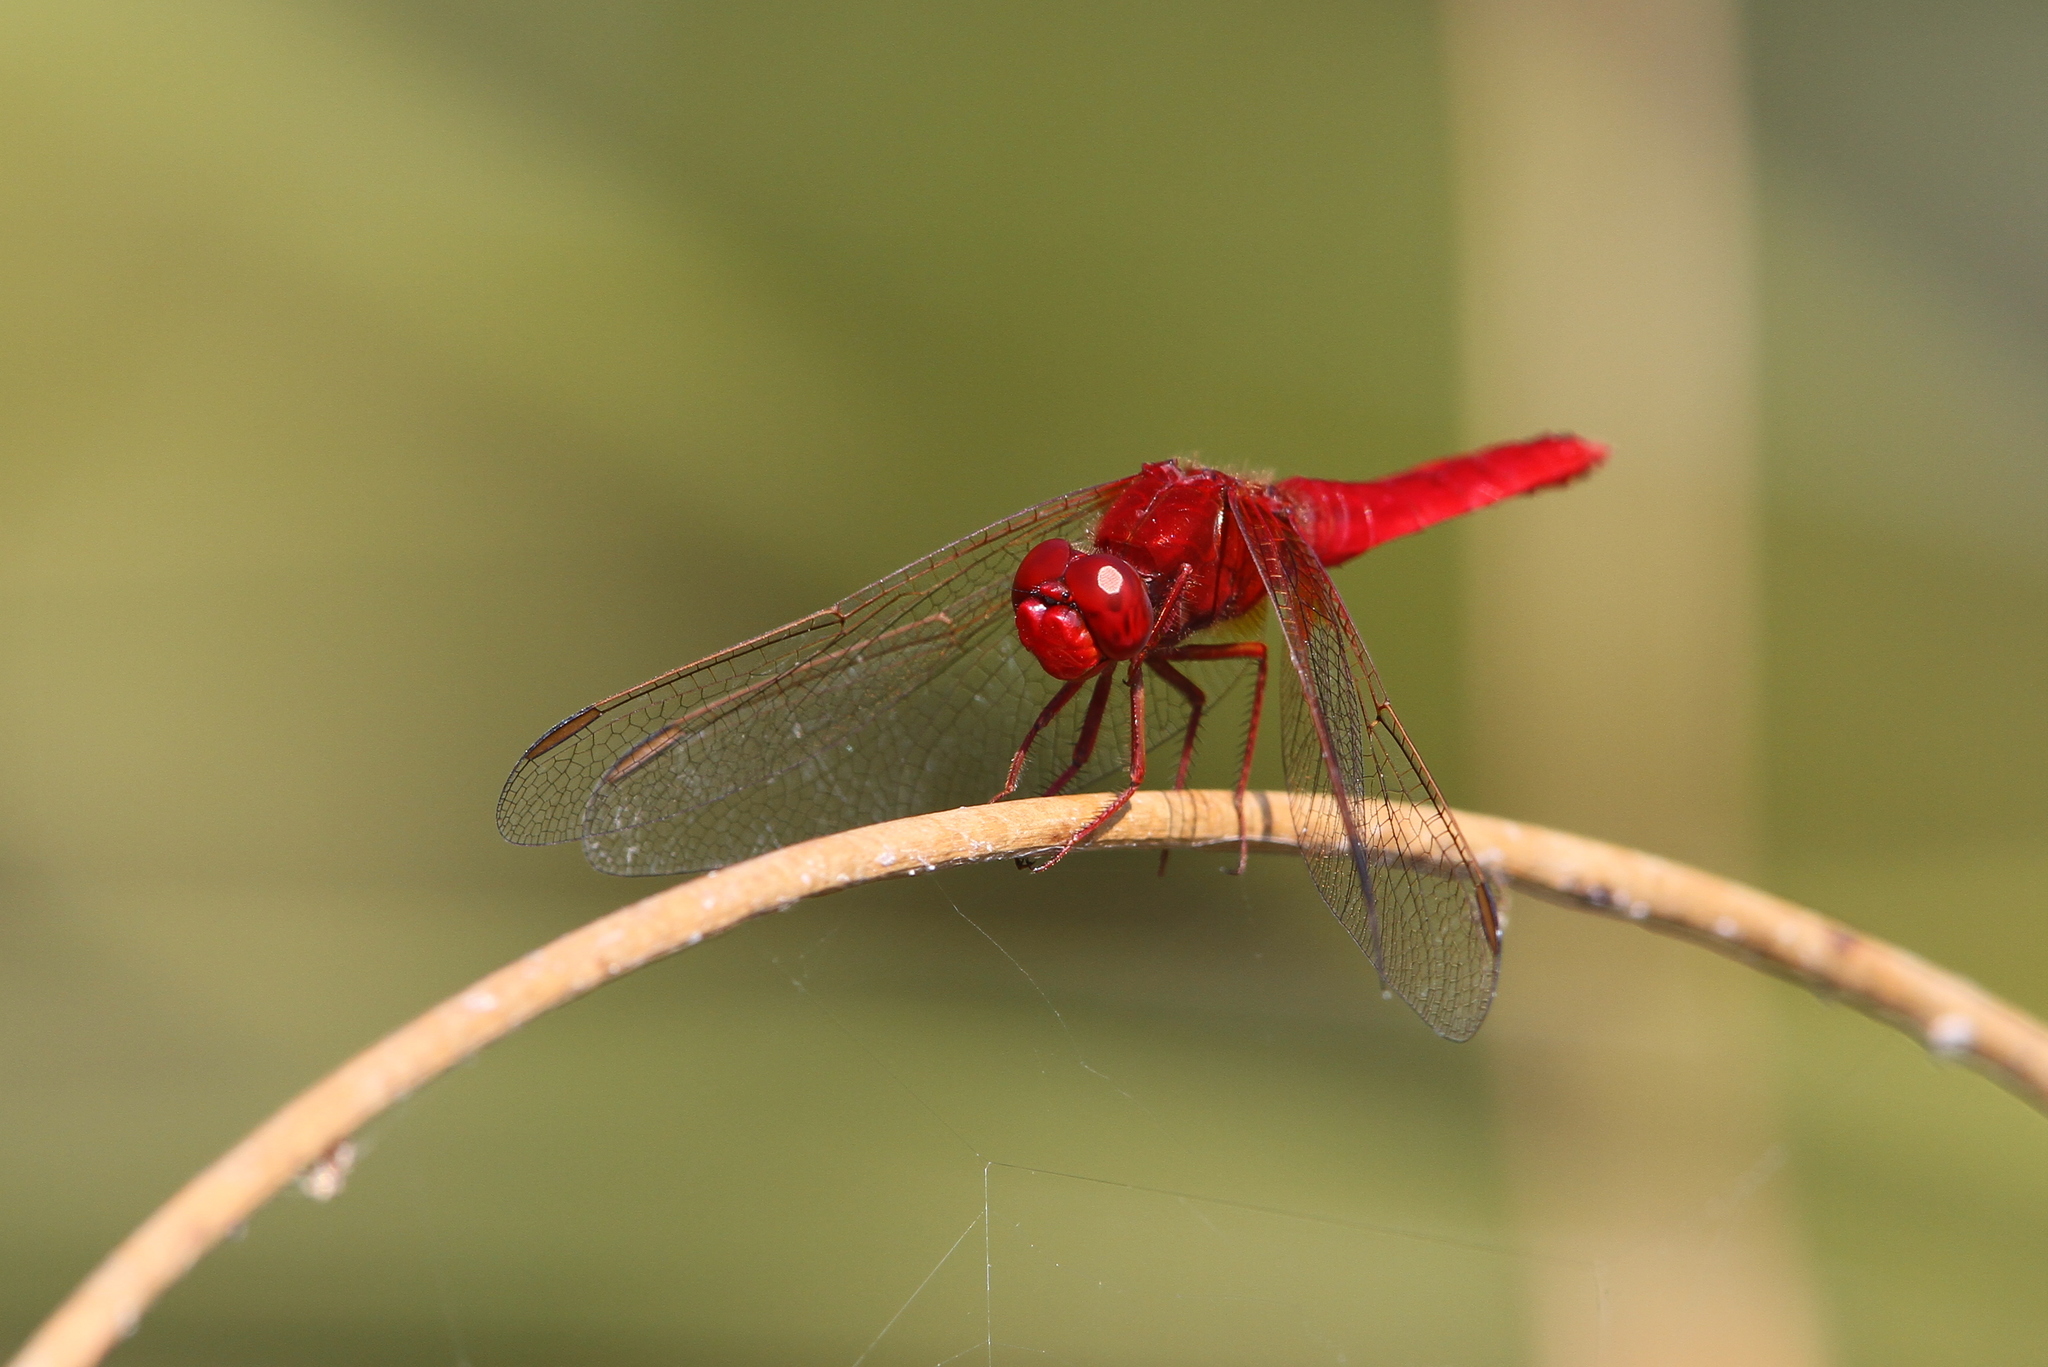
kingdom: Animalia
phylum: Arthropoda
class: Insecta
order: Odonata
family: Libellulidae
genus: Crocothemis
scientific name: Crocothemis erythraea
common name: Scarlet dragonfly
